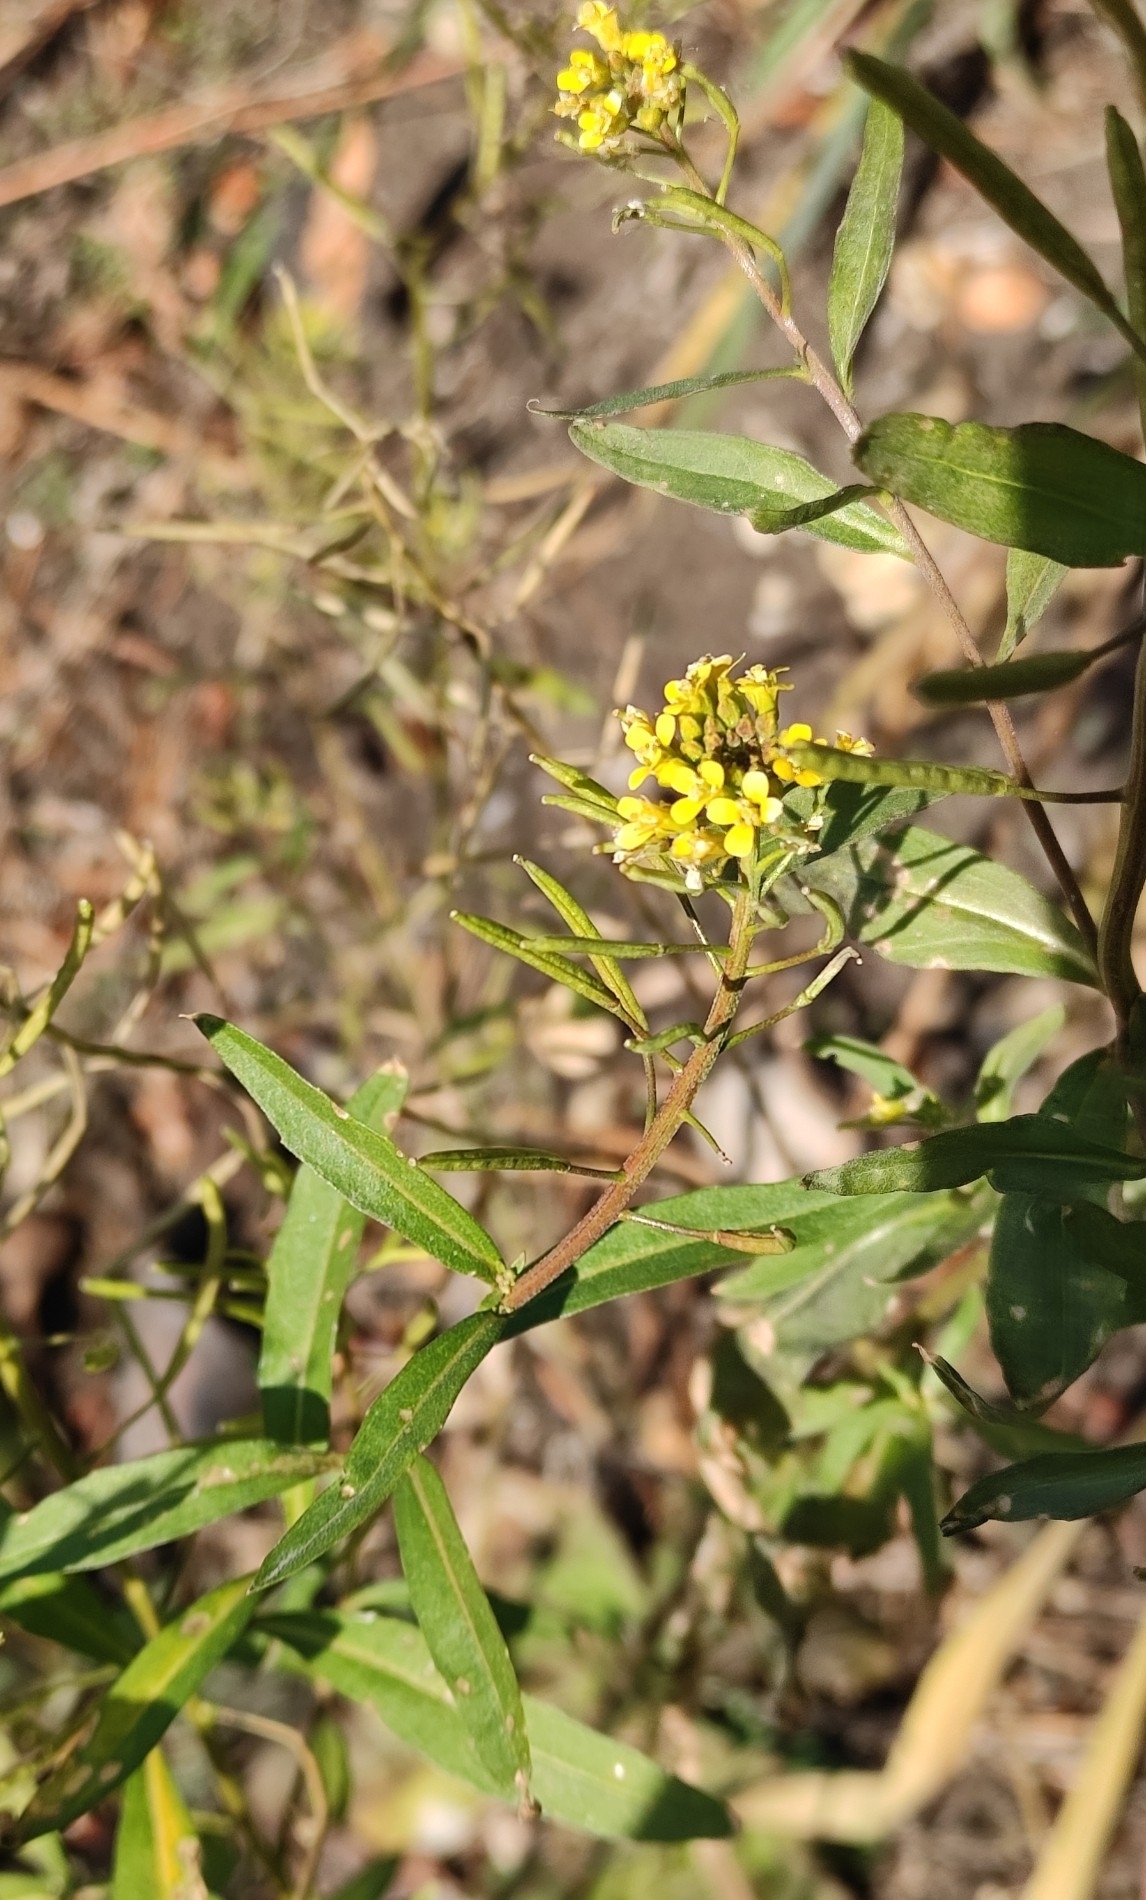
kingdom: Plantae
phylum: Tracheophyta
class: Magnoliopsida
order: Brassicales
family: Brassicaceae
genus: Erysimum
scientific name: Erysimum cheiranthoides
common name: Treacle mustard
